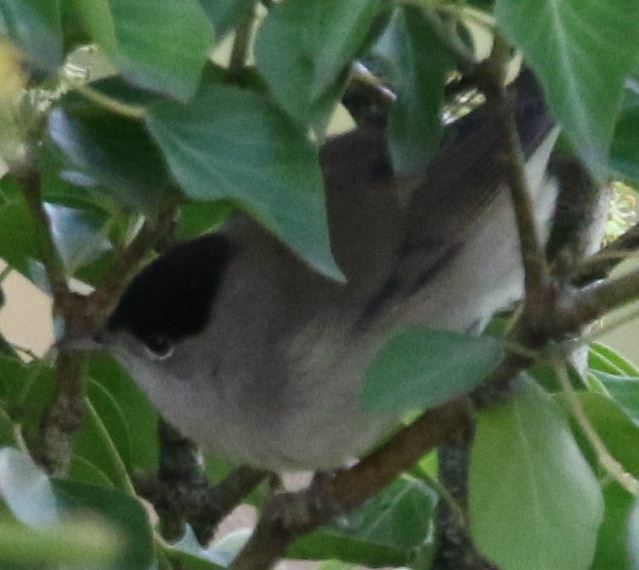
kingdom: Animalia
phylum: Chordata
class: Aves
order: Passeriformes
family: Sylviidae
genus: Sylvia
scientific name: Sylvia atricapilla
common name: Eurasian blackcap
